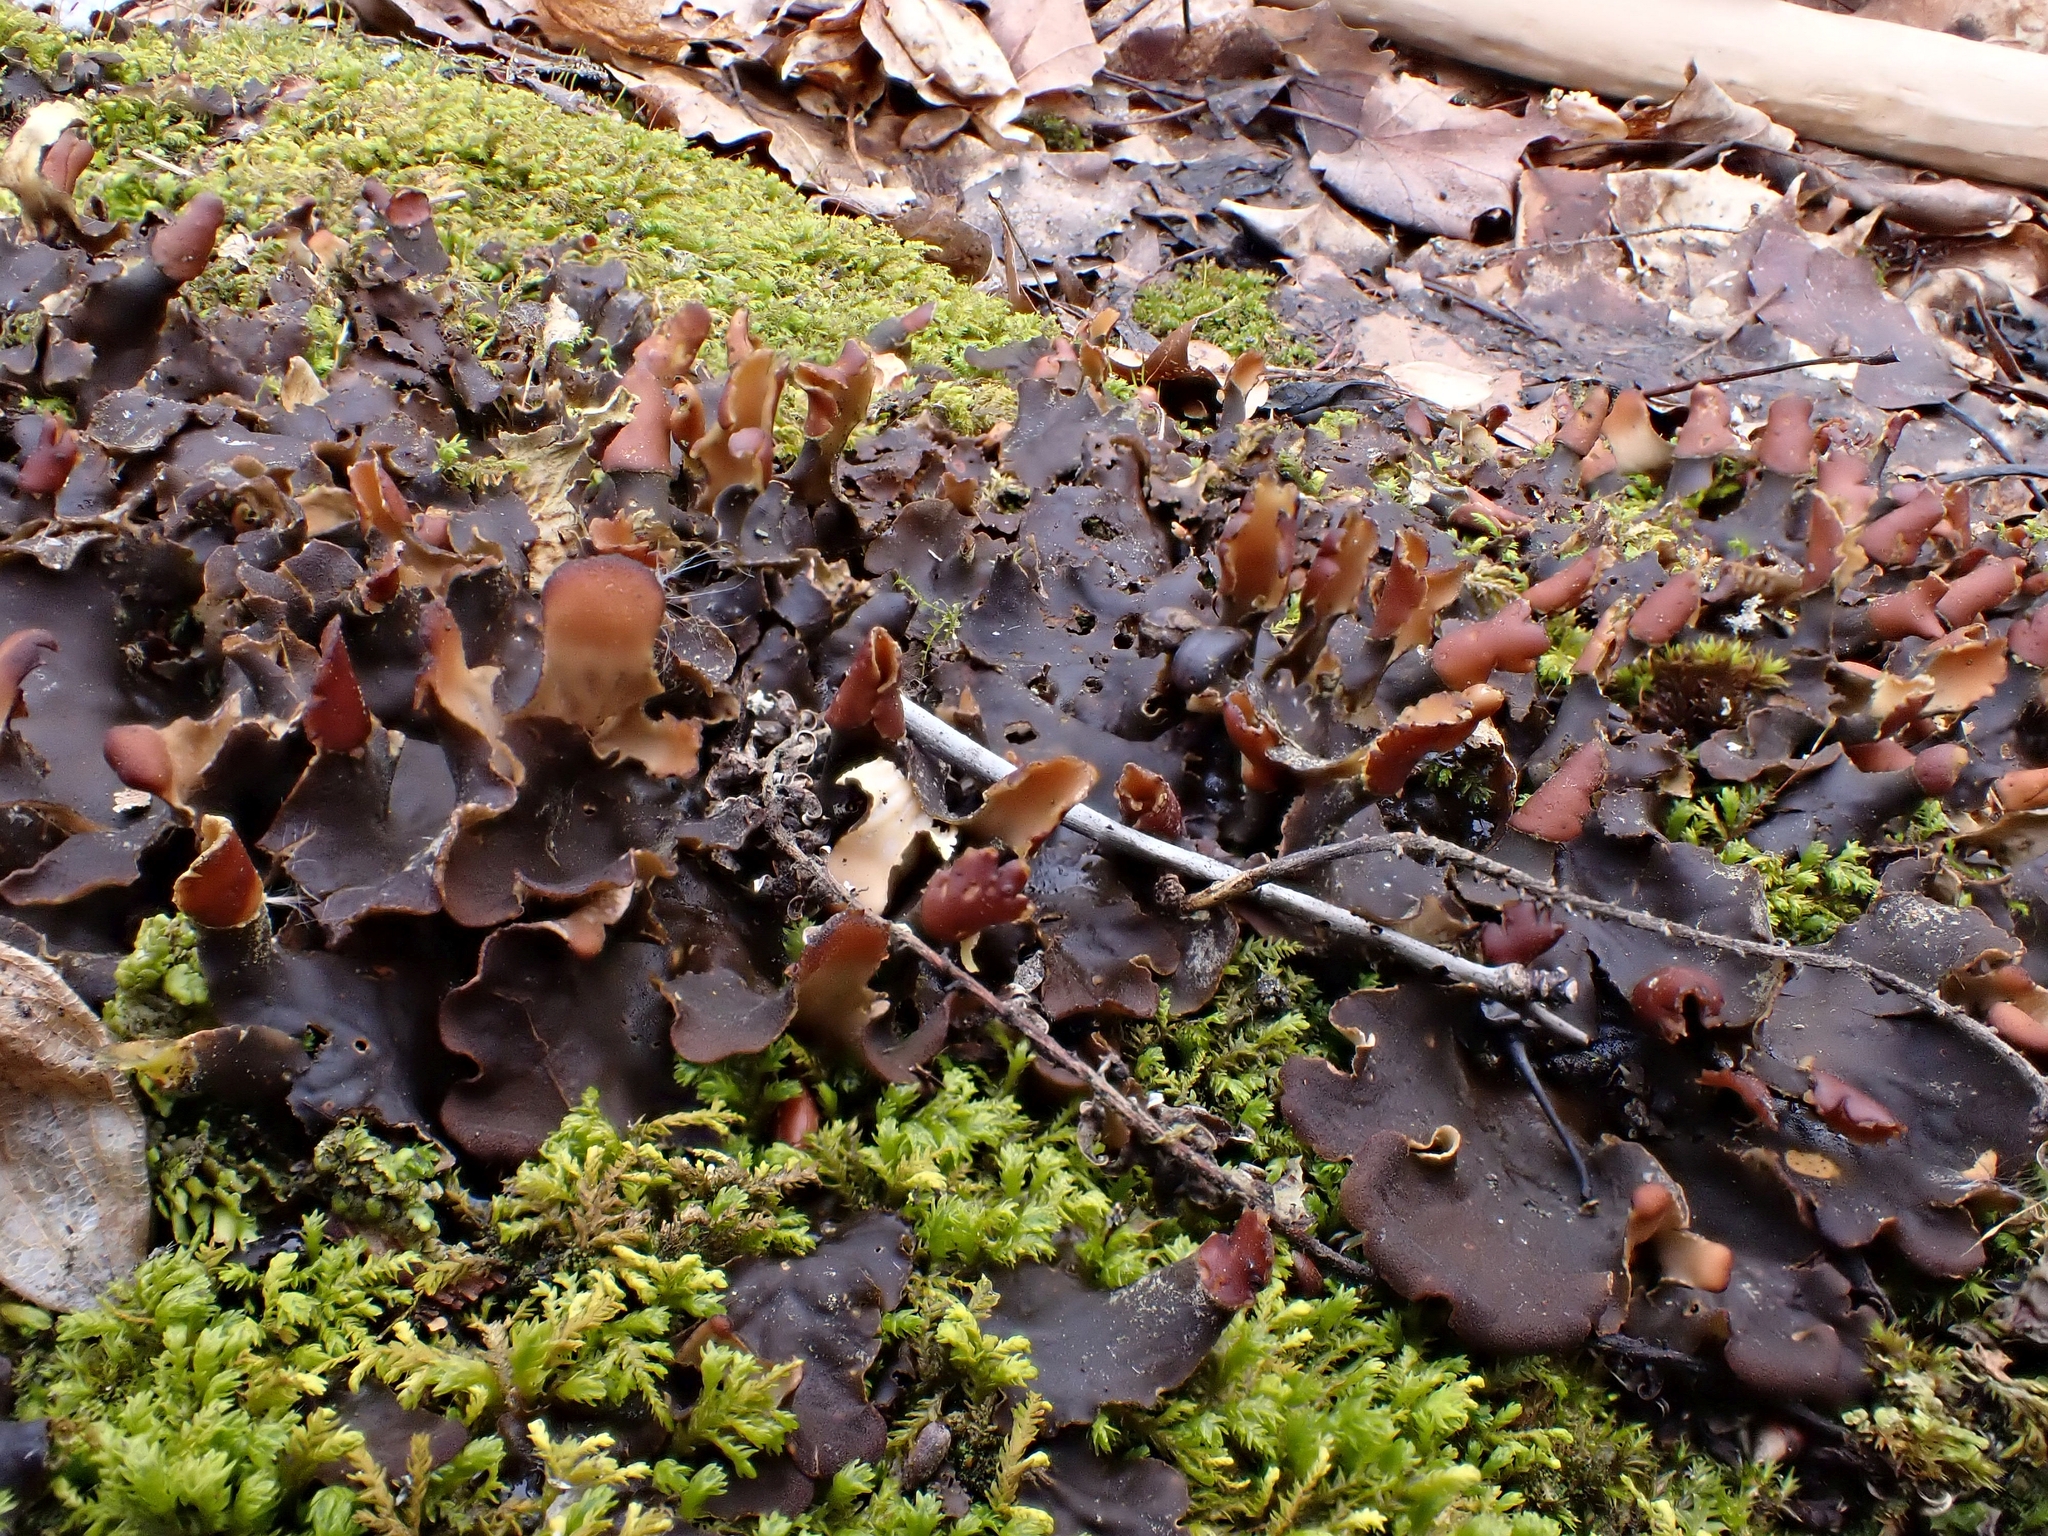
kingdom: Fungi
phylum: Ascomycota
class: Lecanoromycetes
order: Peltigerales
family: Peltigeraceae
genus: Peltigera
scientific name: Peltigera polydactylon
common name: Many-fruited pelt lichen
